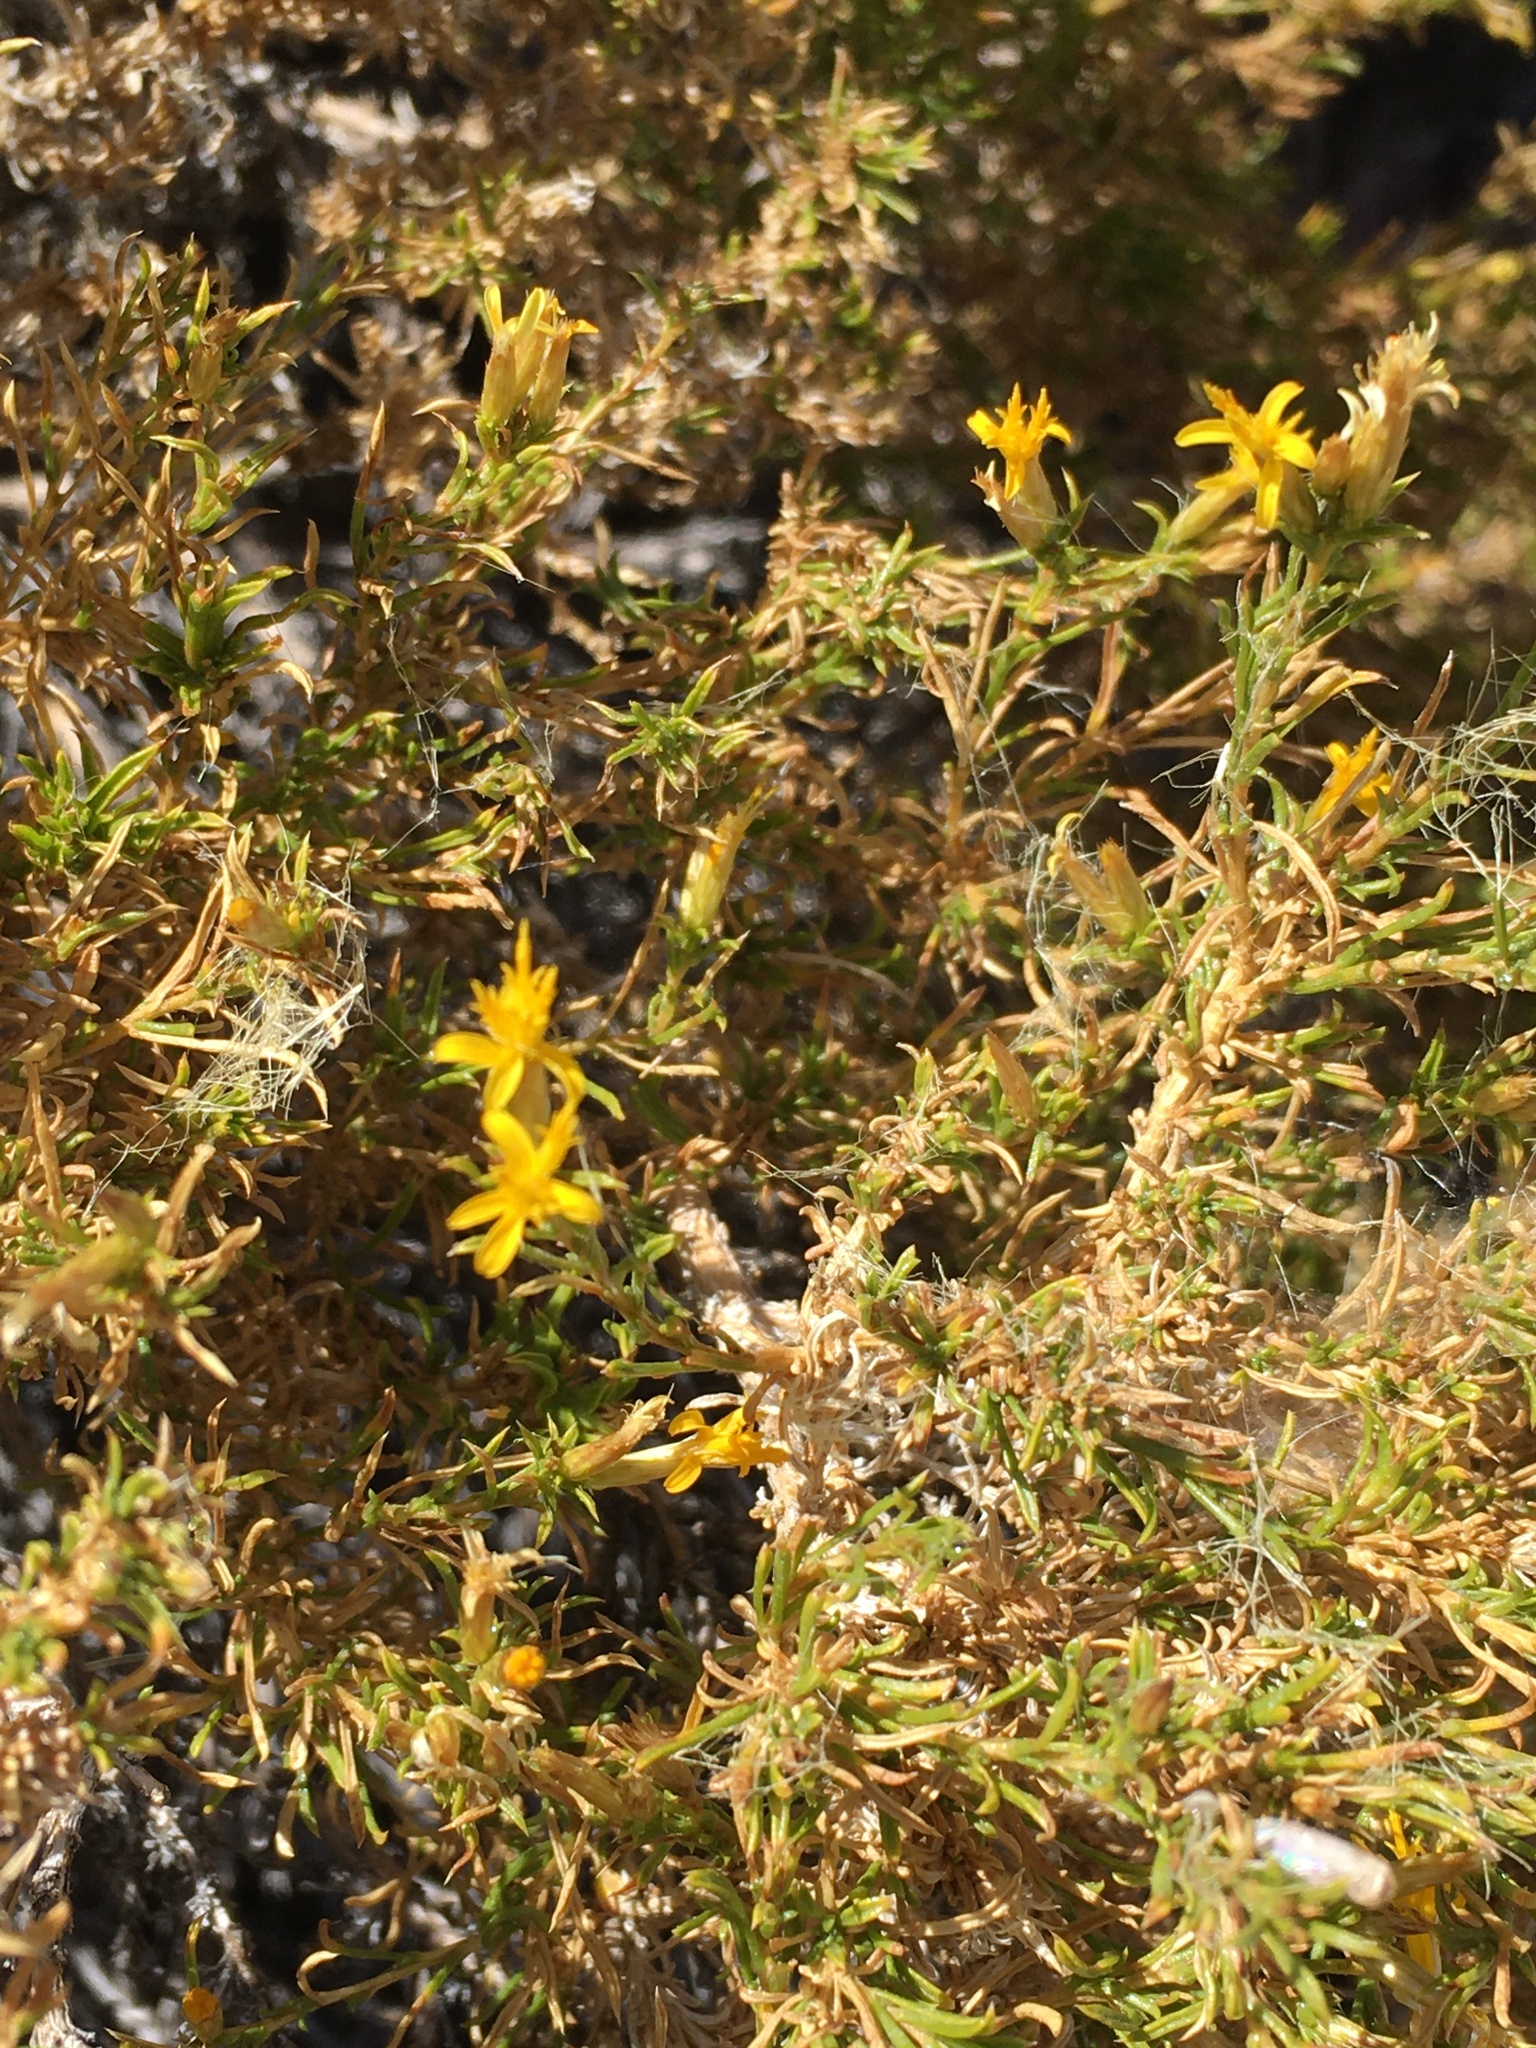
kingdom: Plantae
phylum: Tracheophyta
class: Magnoliopsida
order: Asterales
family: Asteraceae
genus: Ericameria
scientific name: Ericameria nana
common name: Dwarf goldenbush
